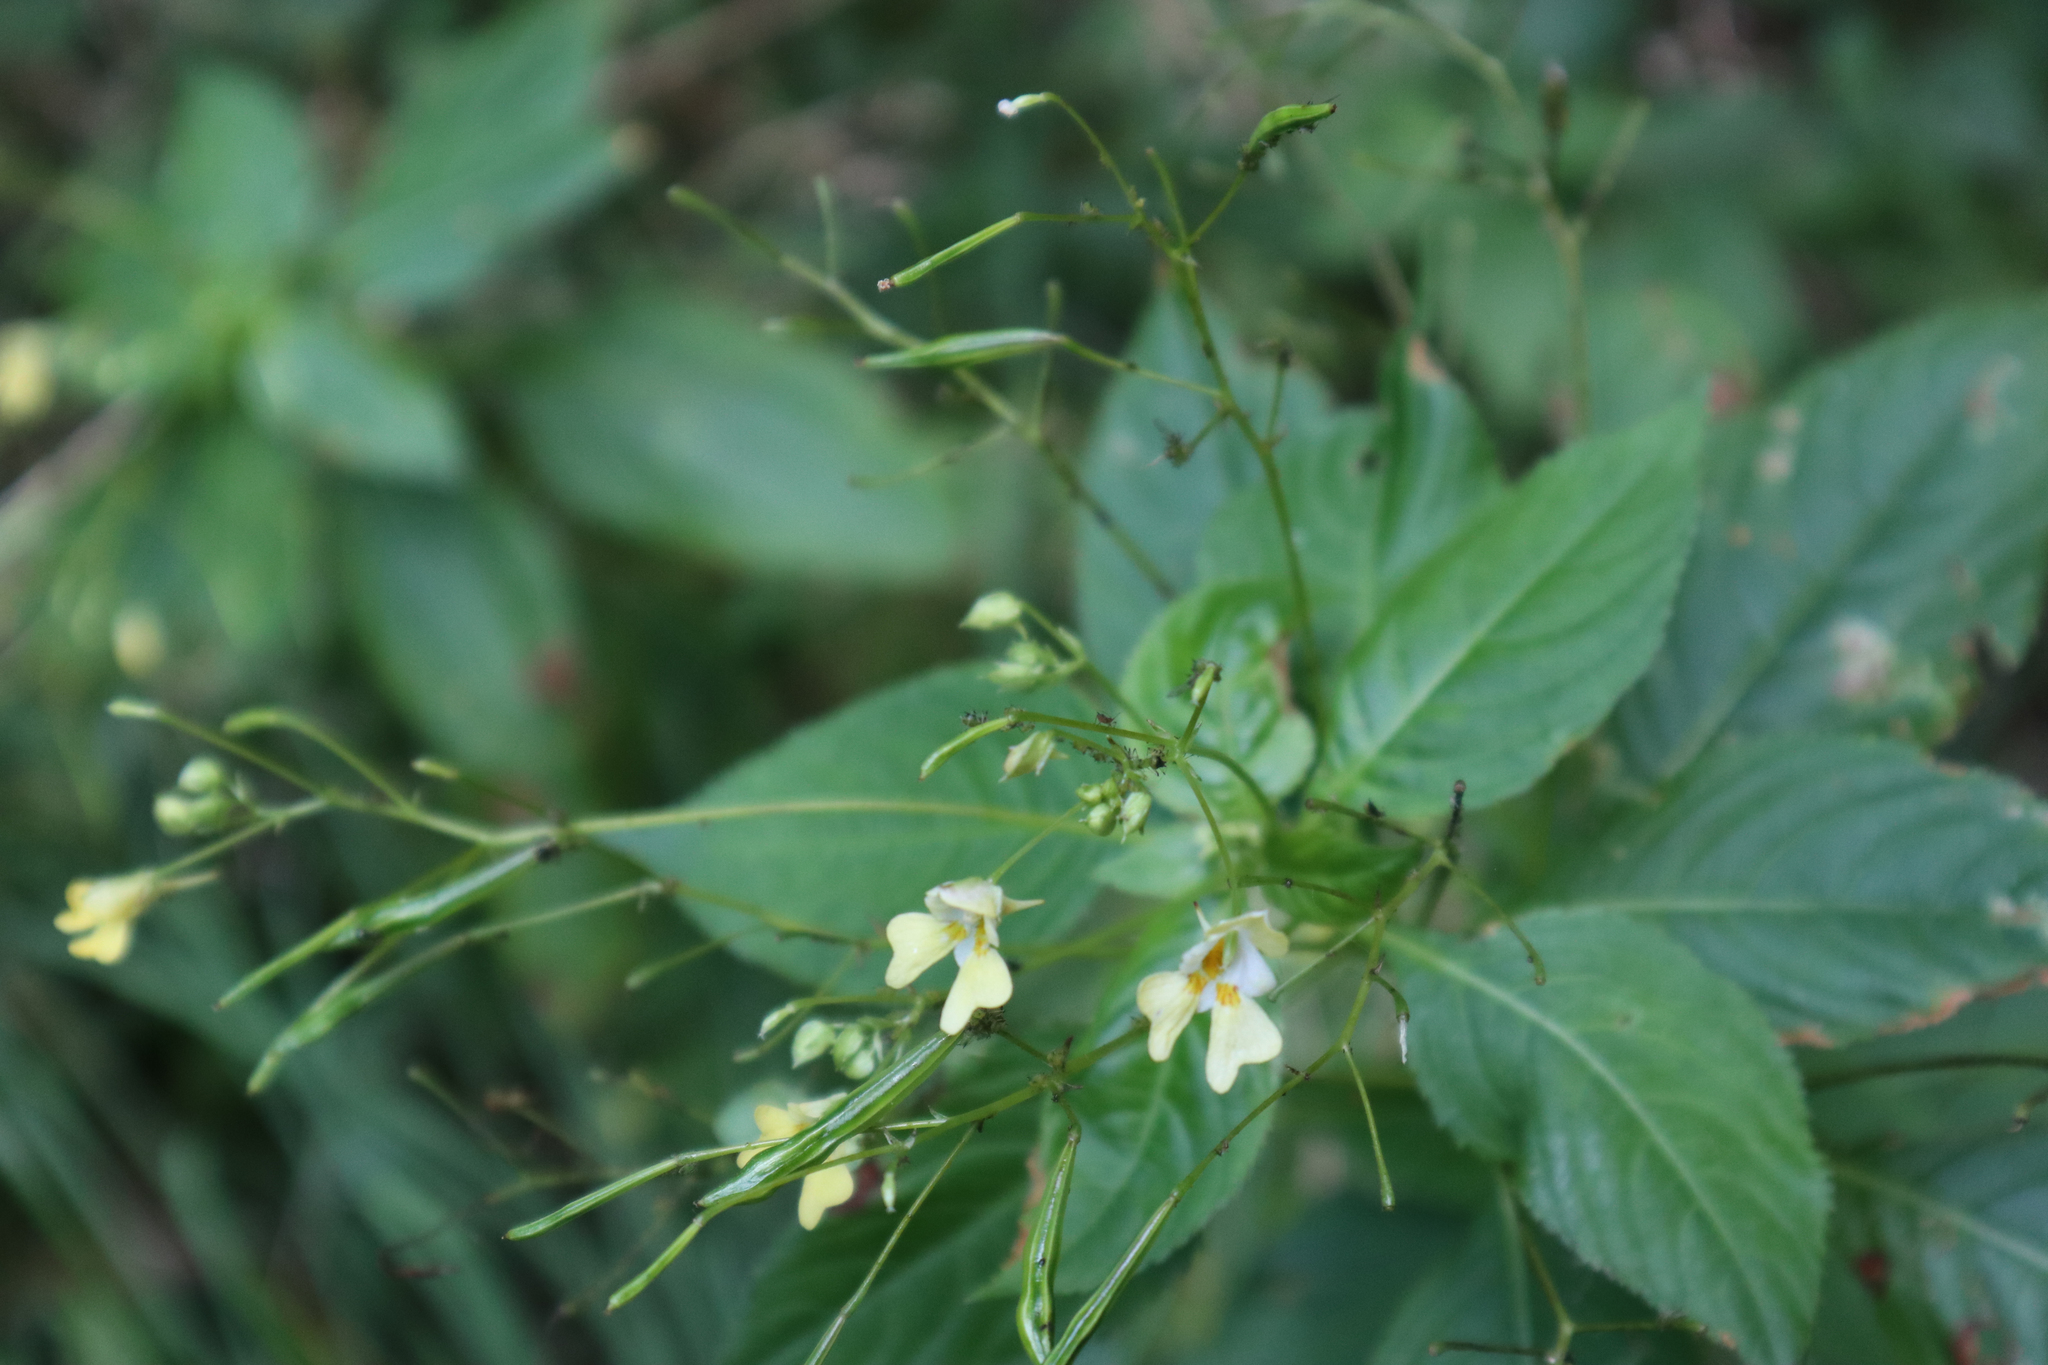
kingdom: Plantae
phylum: Tracheophyta
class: Magnoliopsida
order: Ericales
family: Balsaminaceae
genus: Impatiens
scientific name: Impatiens parviflora
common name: Small balsam
